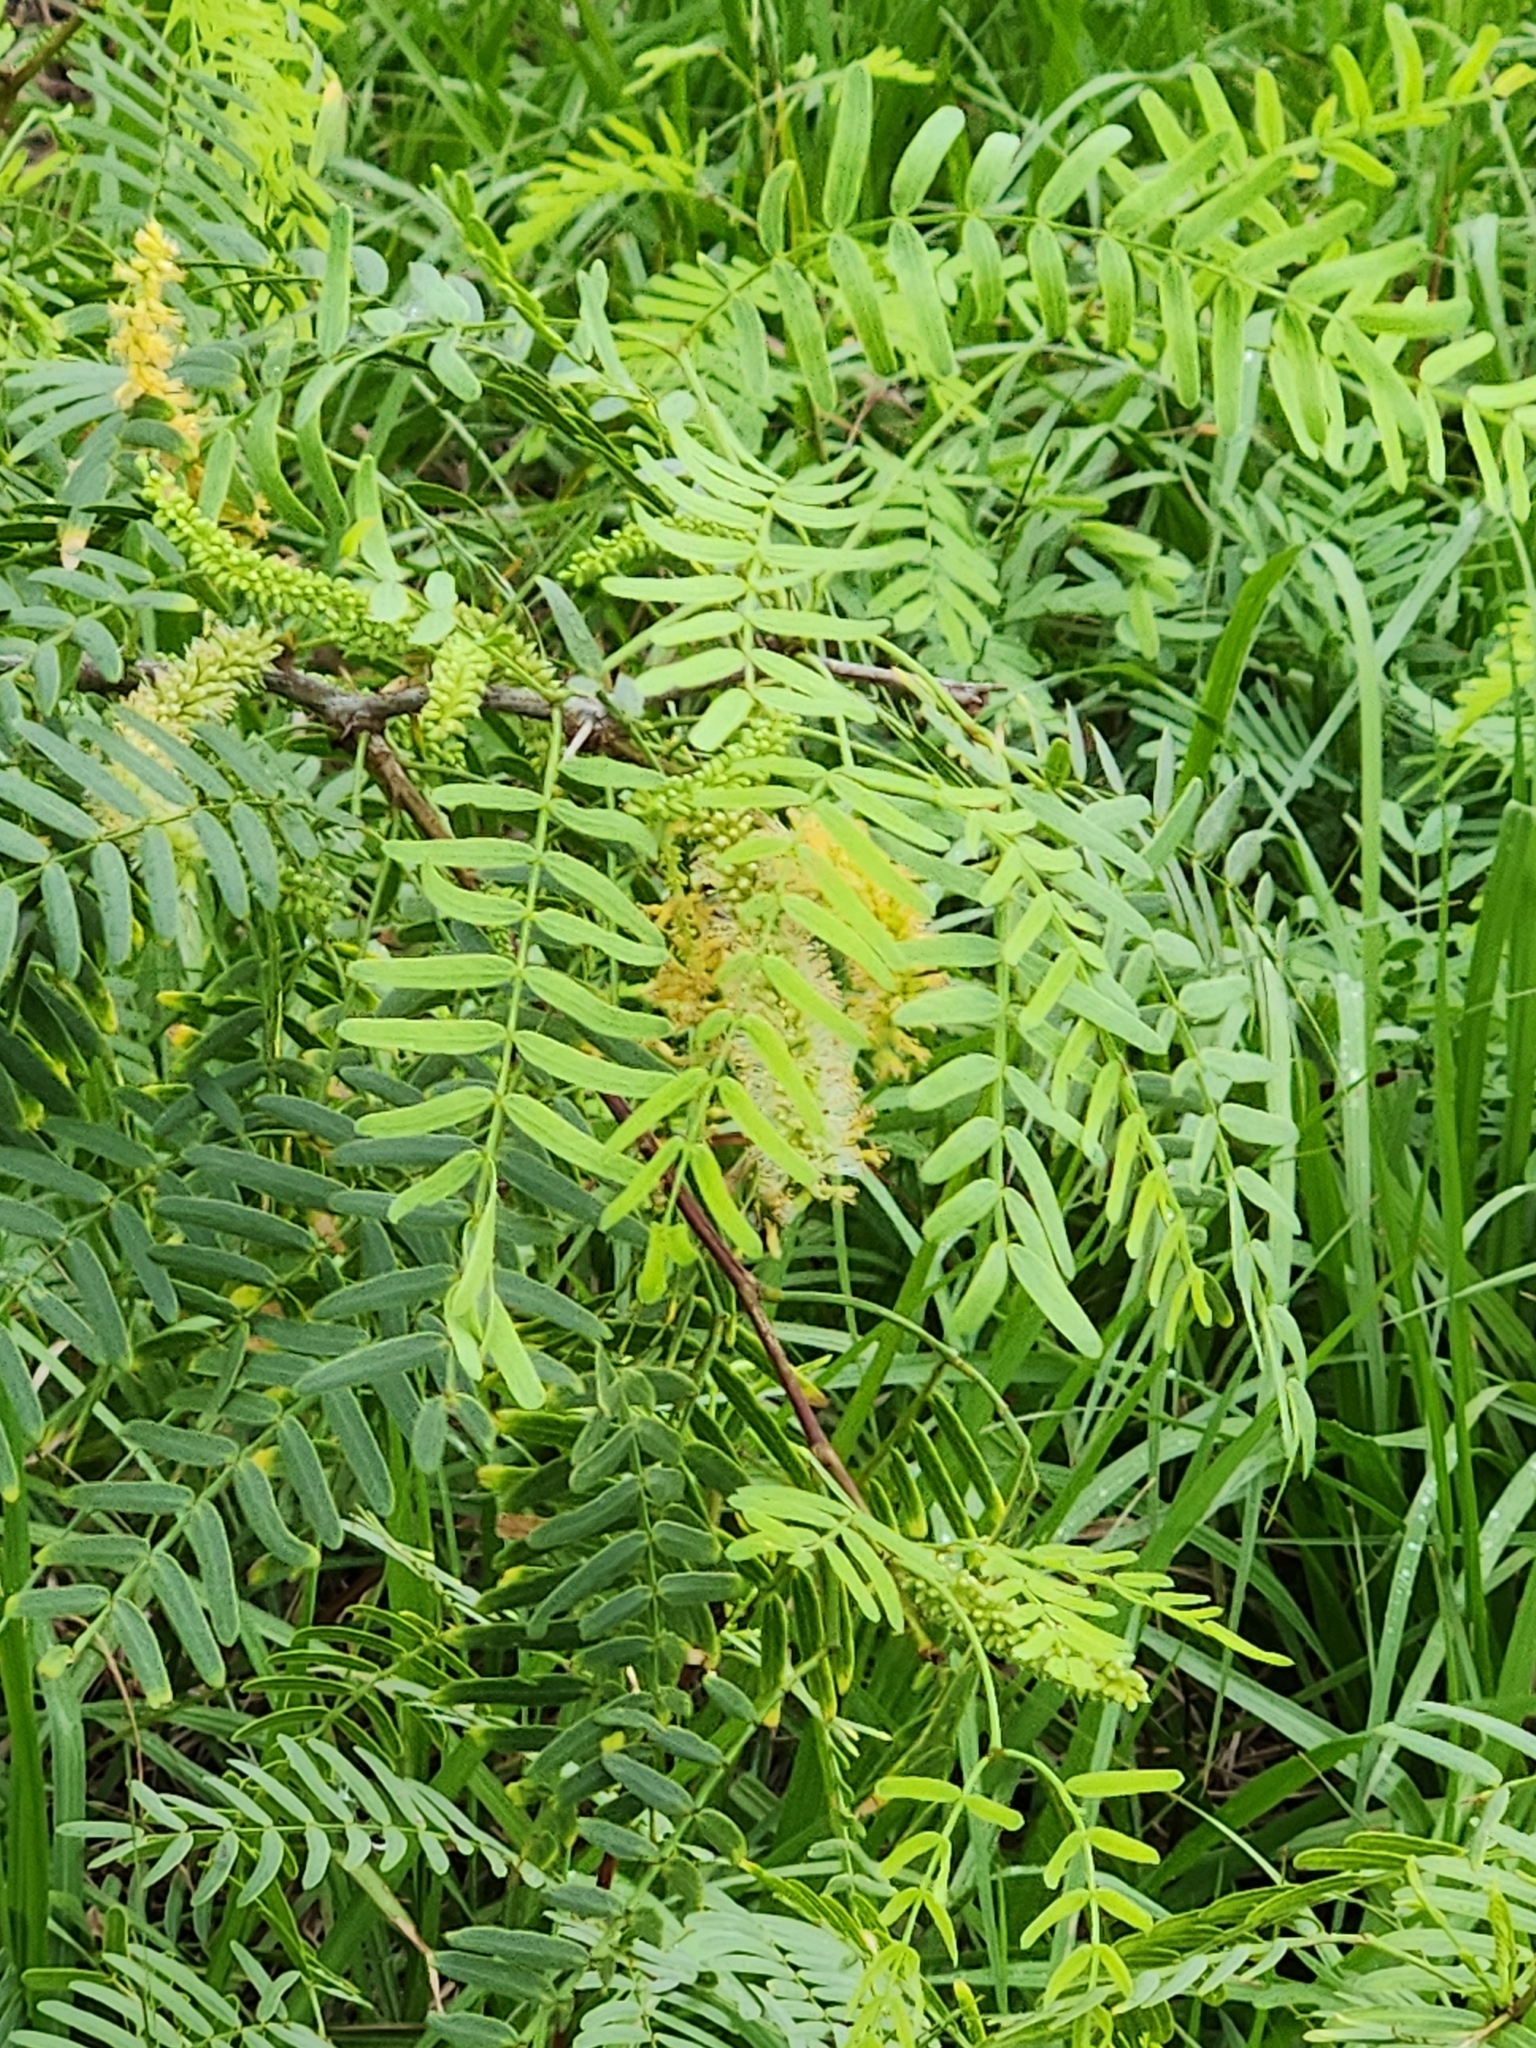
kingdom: Plantae
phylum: Tracheophyta
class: Magnoliopsida
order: Fabales
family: Fabaceae
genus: Prosopis
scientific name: Prosopis glandulosa
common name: Honey mesquite
